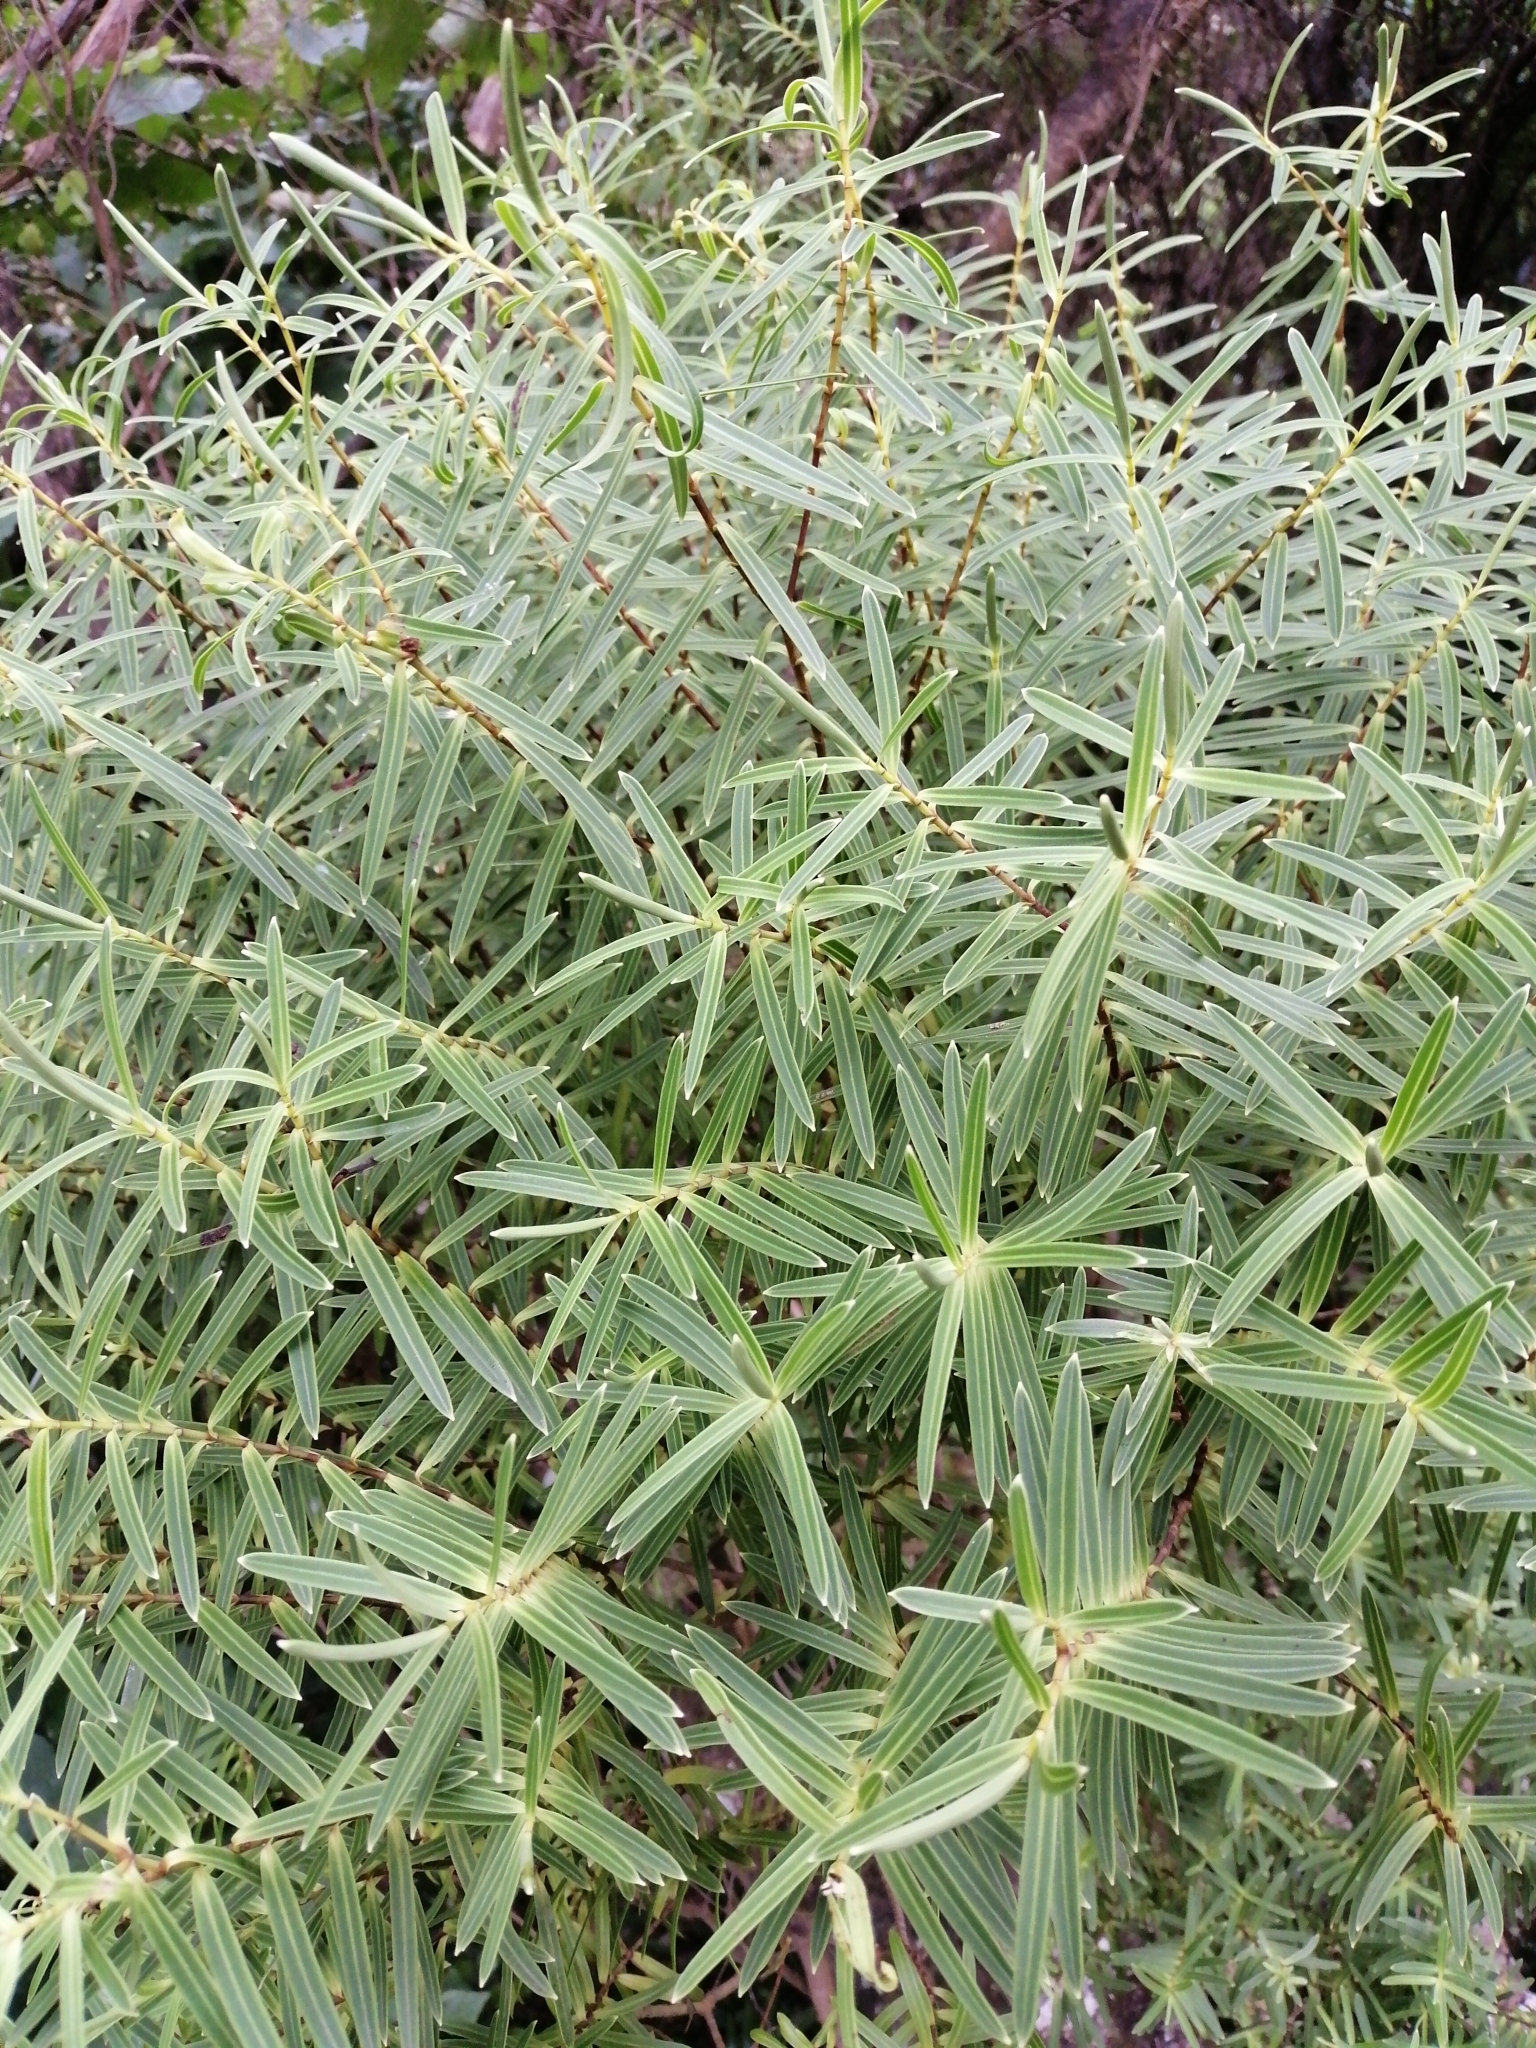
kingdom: Plantae
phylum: Tracheophyta
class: Magnoliopsida
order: Lamiales
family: Plantaginaceae
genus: Veronica
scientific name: Veronica parviflora
